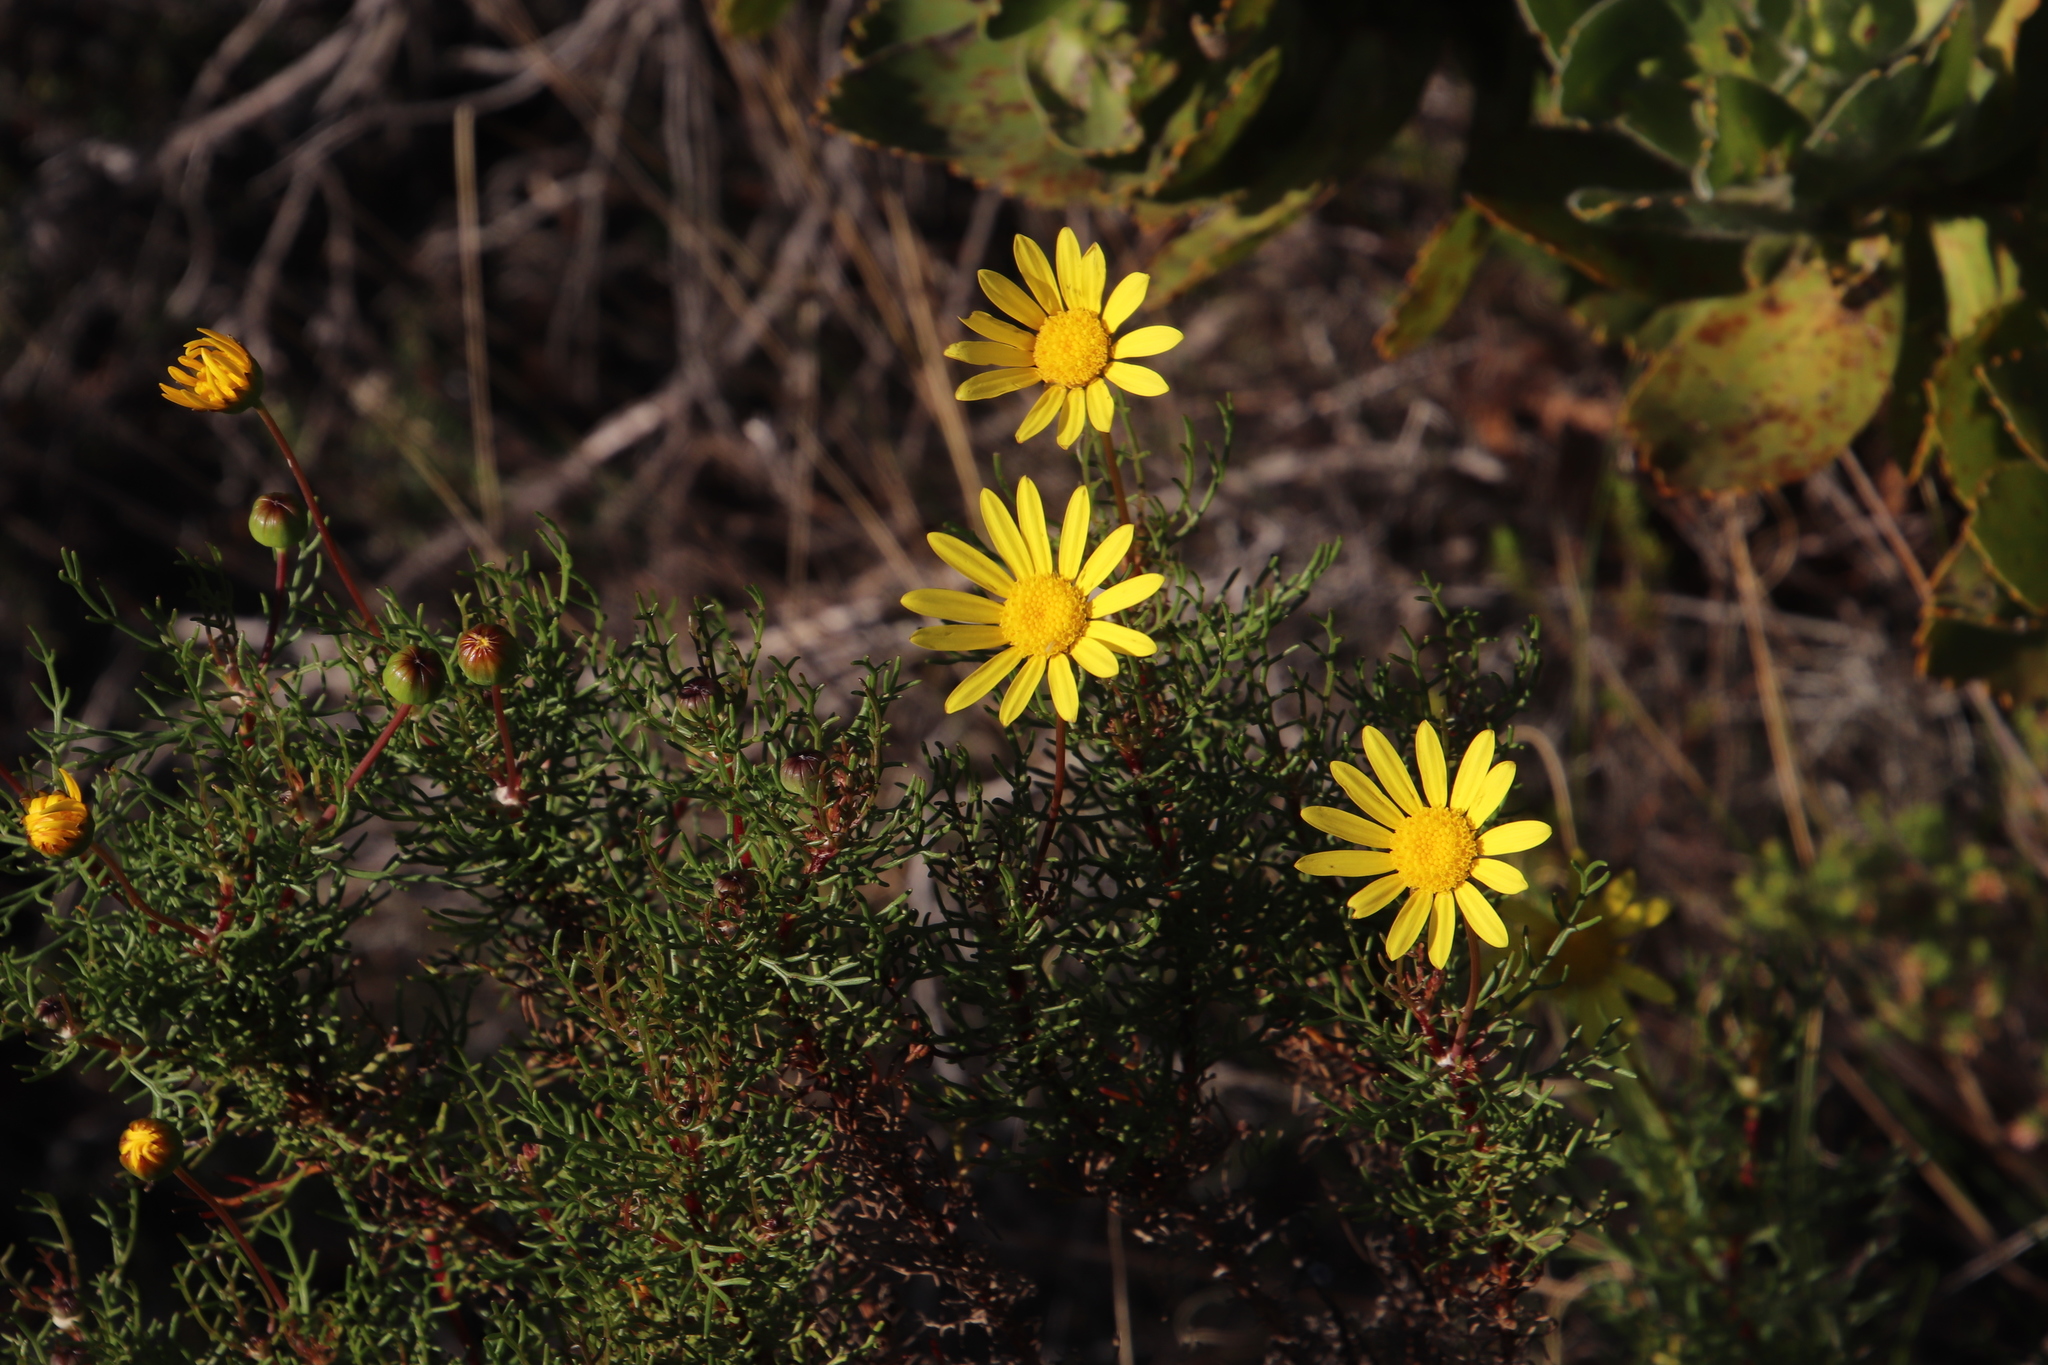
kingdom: Plantae
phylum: Tracheophyta
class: Magnoliopsida
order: Asterales
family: Asteraceae
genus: Euryops
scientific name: Euryops abrotanifolius
